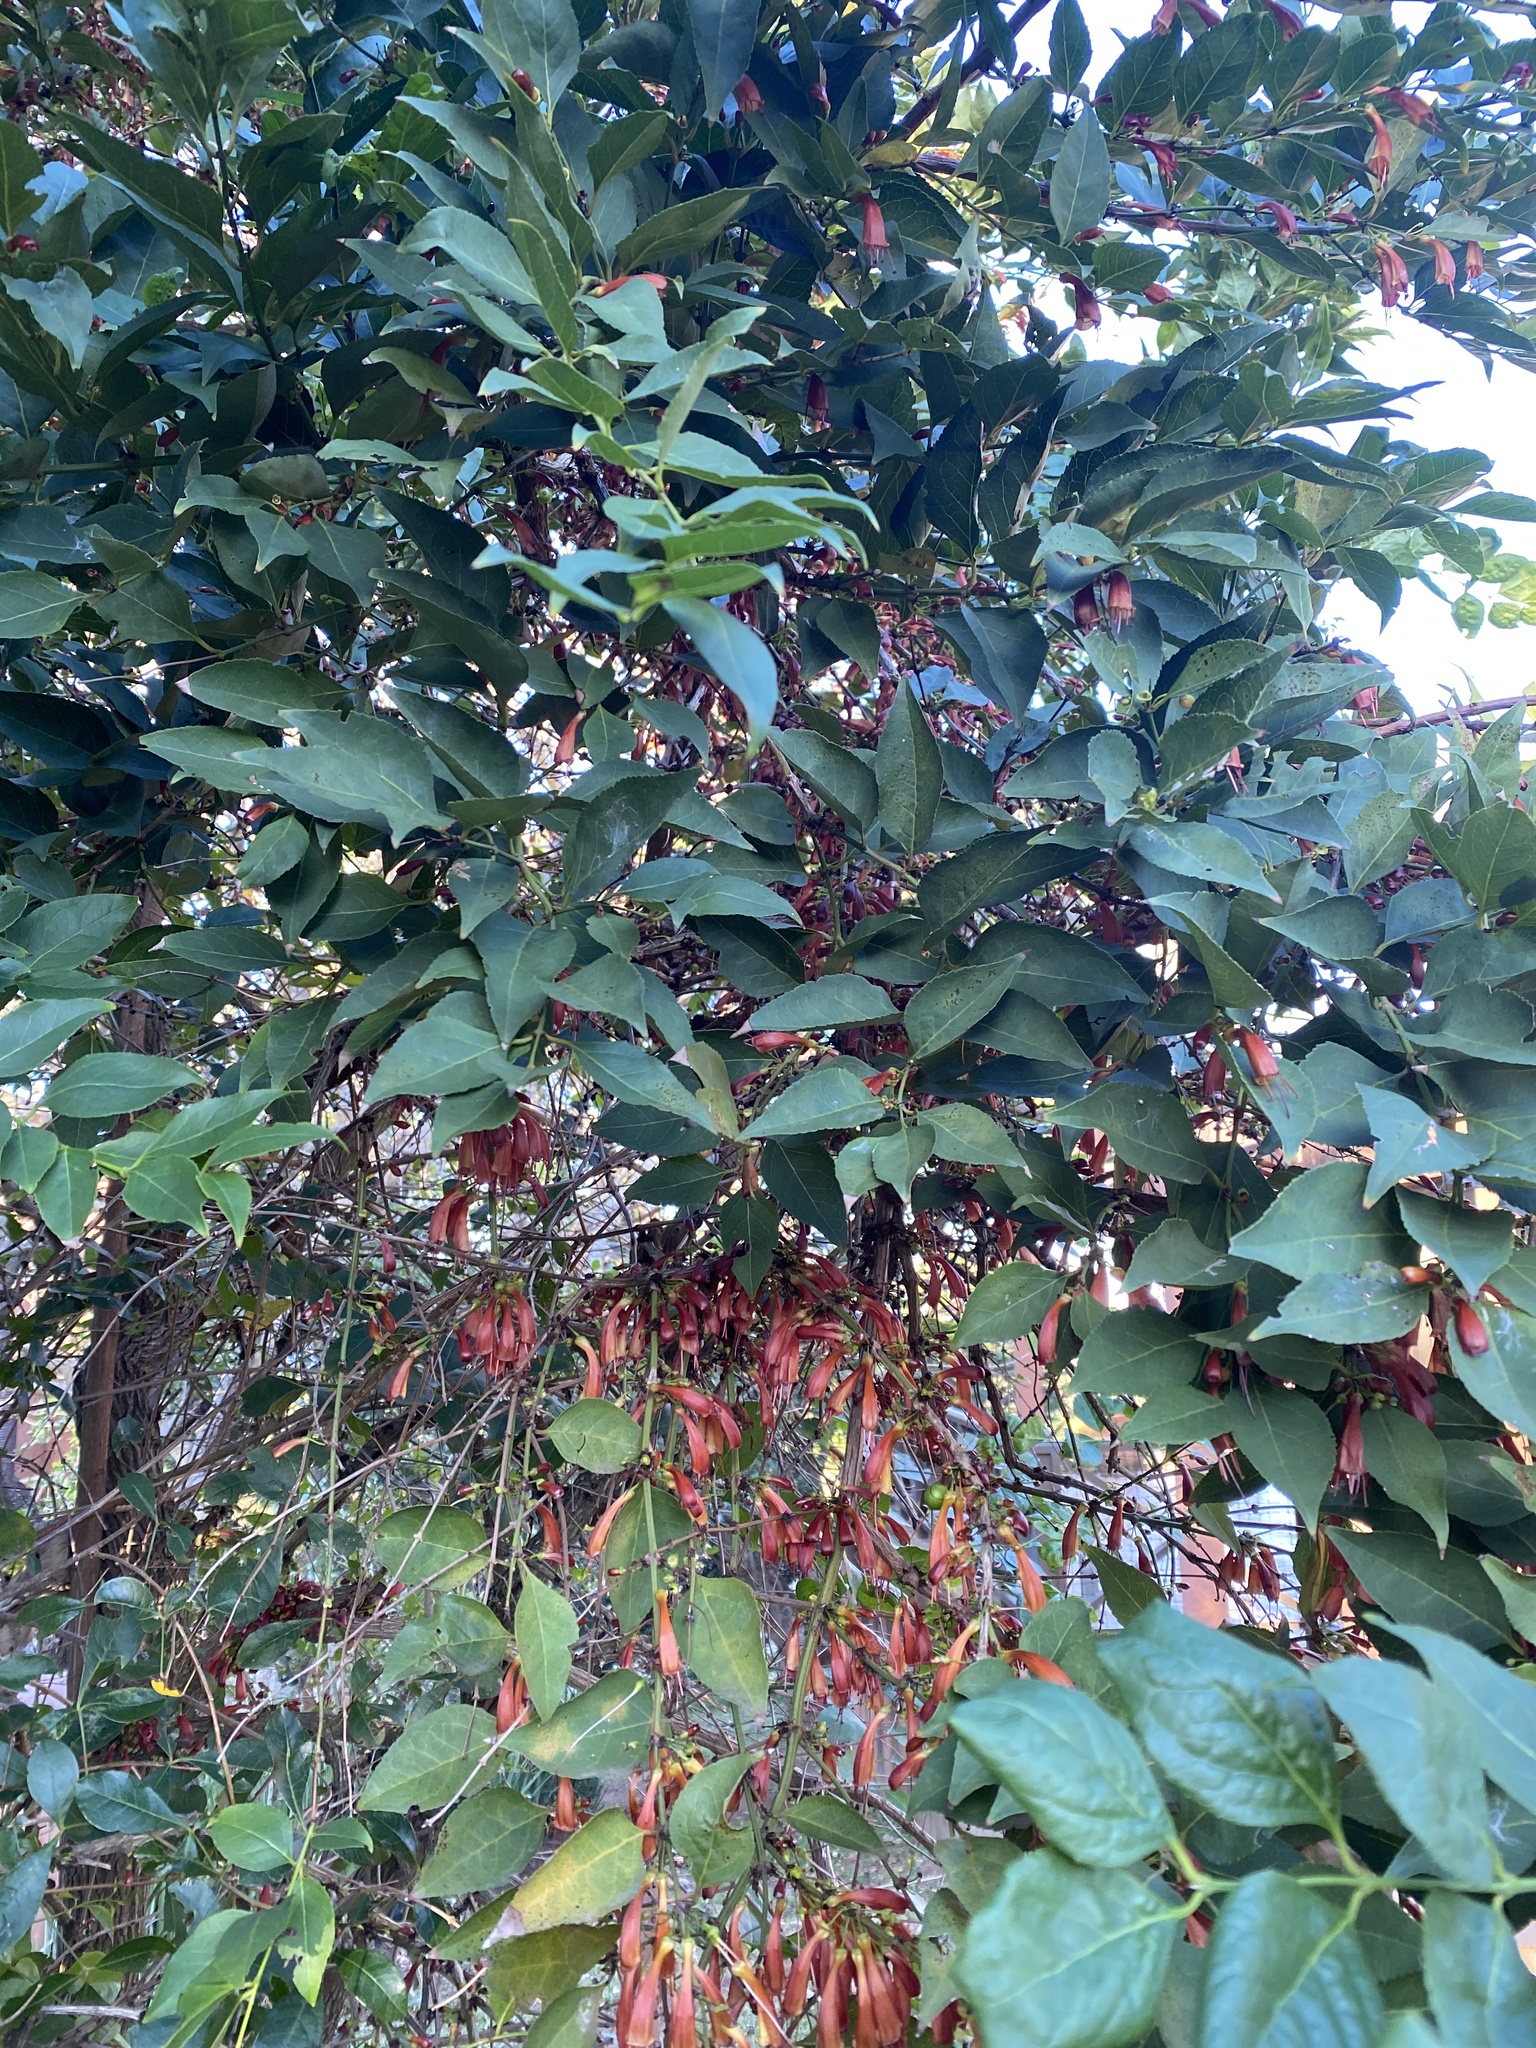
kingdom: Plantae
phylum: Tracheophyta
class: Magnoliopsida
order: Lamiales
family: Stilbaceae
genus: Halleria
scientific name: Halleria lucida
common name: Tree fuschia
